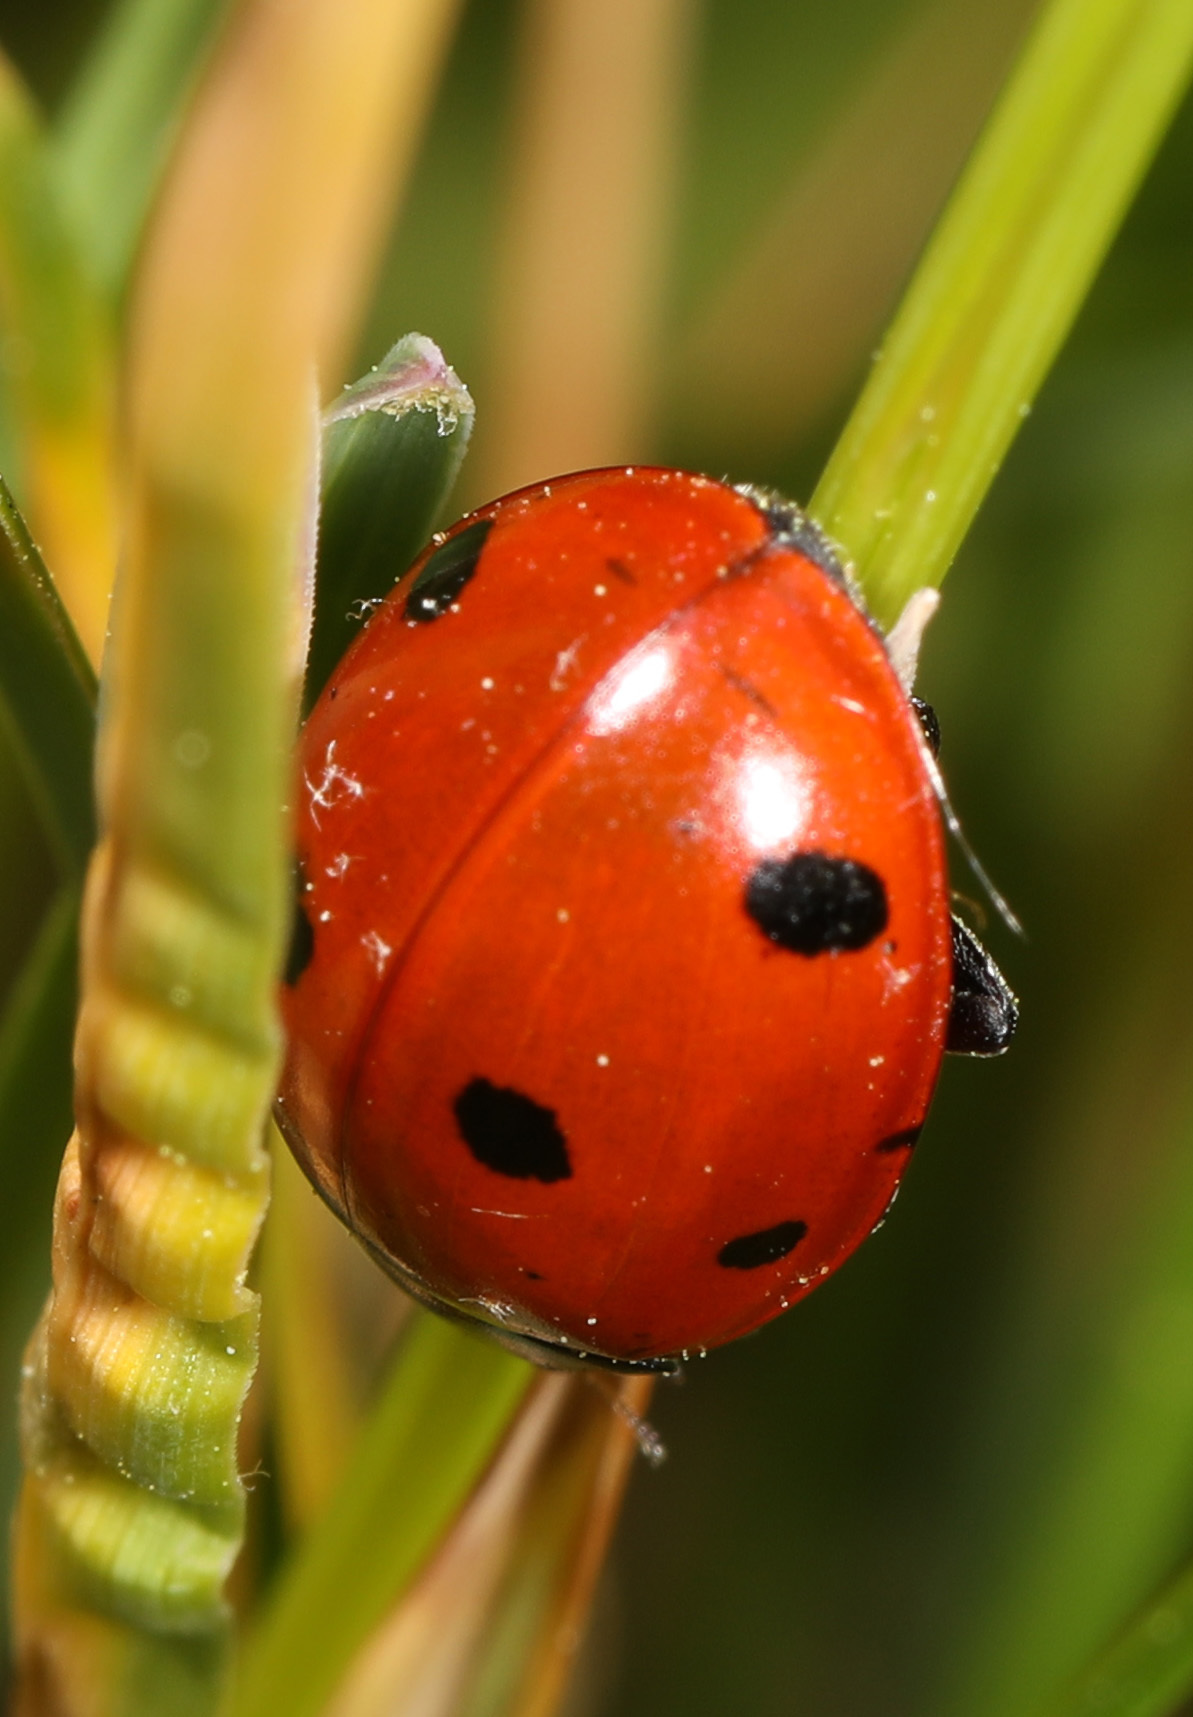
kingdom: Animalia
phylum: Arthropoda
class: Insecta
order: Coleoptera
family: Coccinellidae
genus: Coccinella
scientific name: Coccinella septempunctata
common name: Sevenspotted lady beetle
